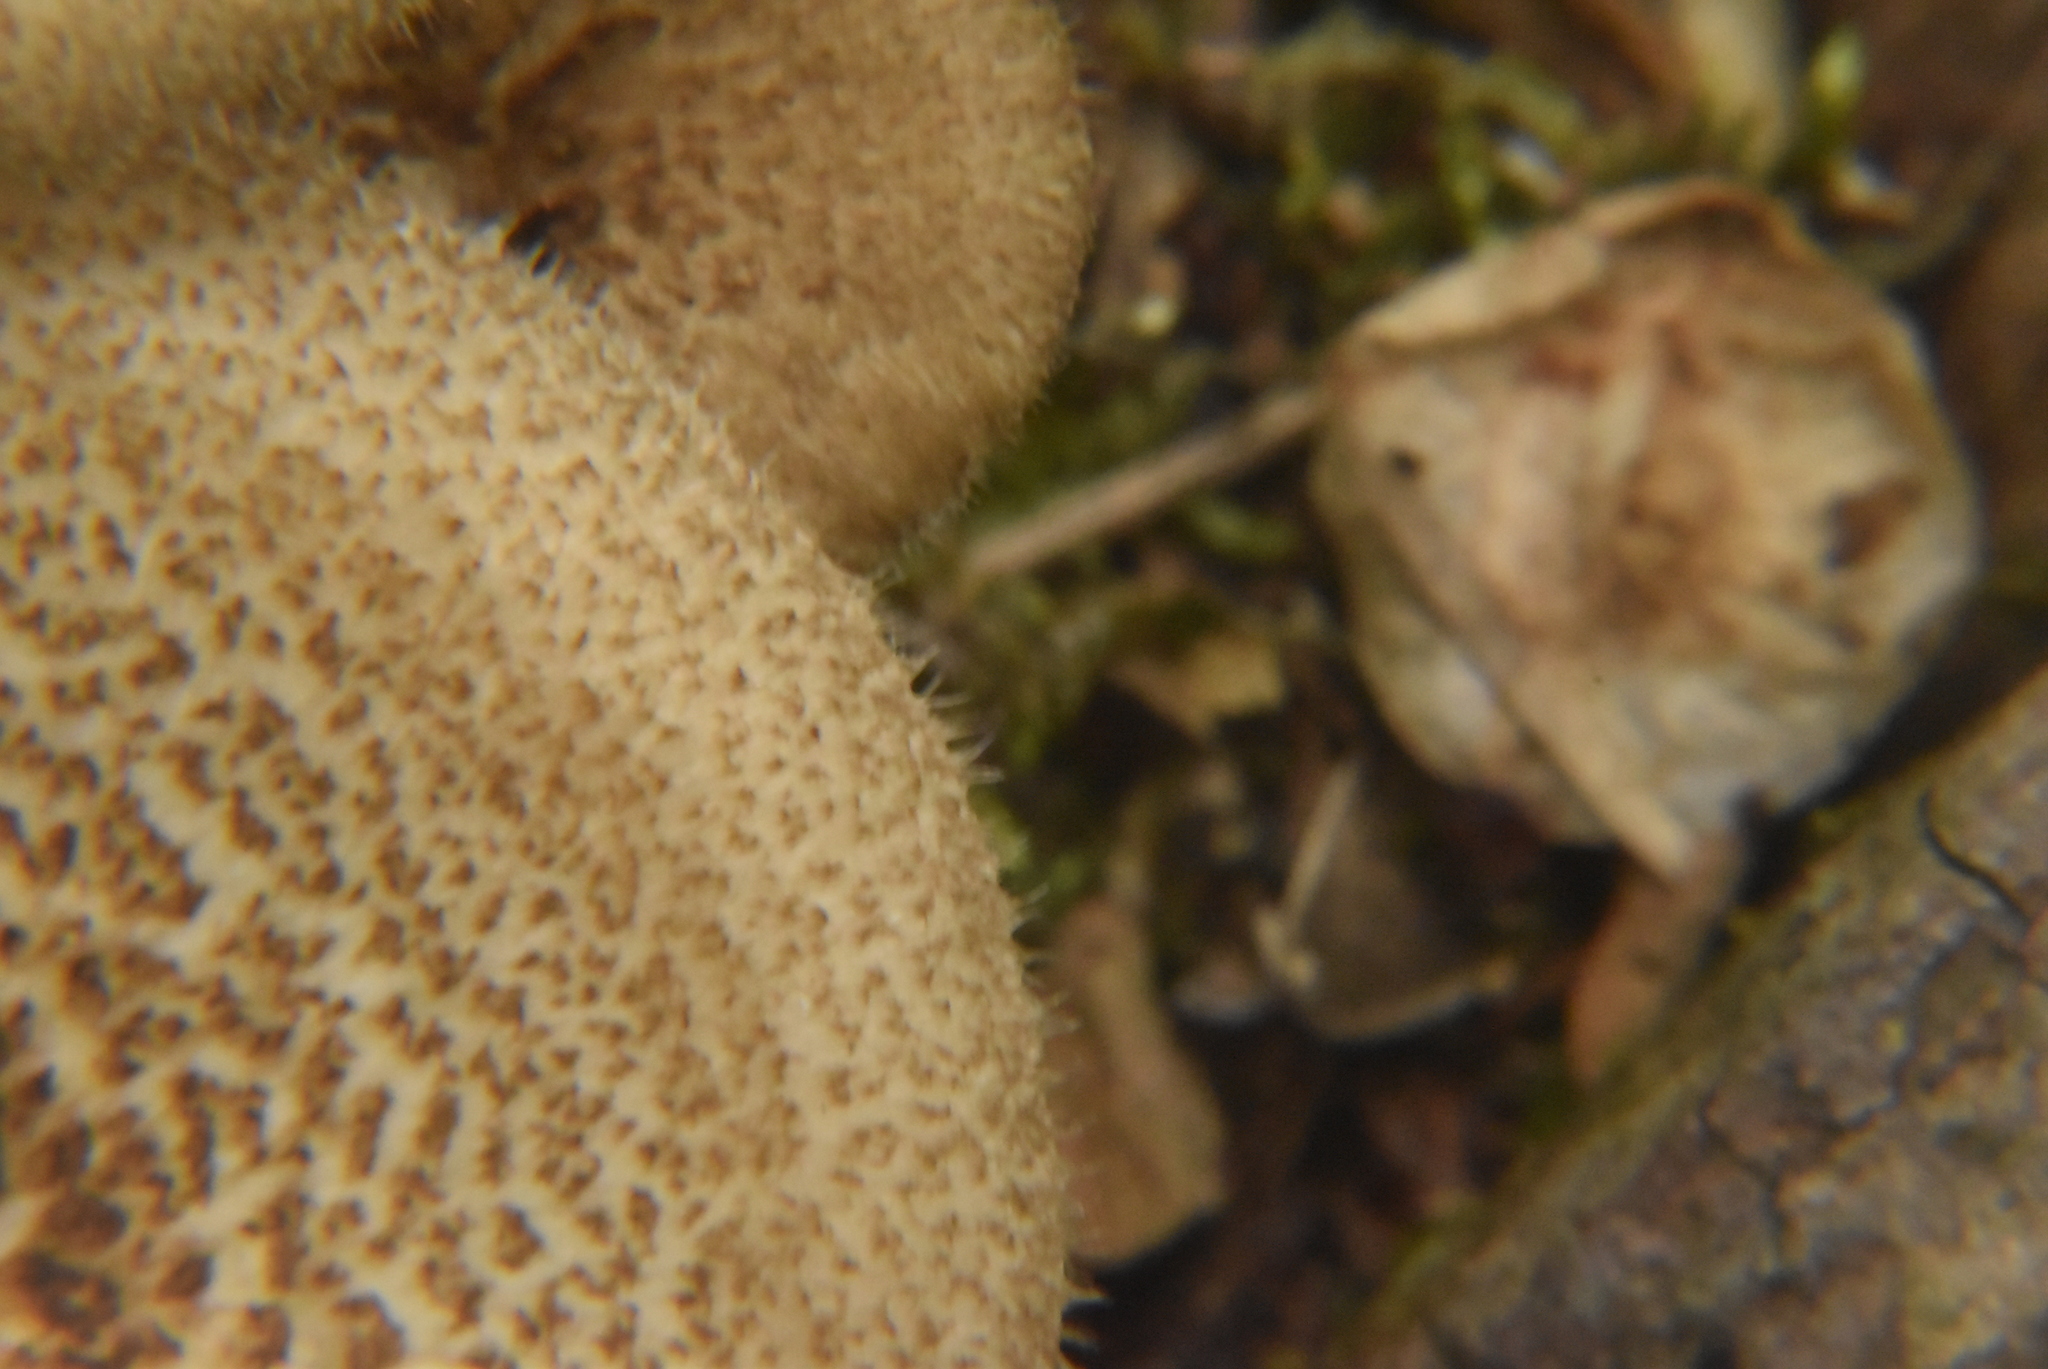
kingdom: Fungi
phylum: Basidiomycota
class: Agaricomycetes
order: Polyporales
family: Polyporaceae
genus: Lentinus
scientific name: Lentinus arcularius
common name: Spring polypore
